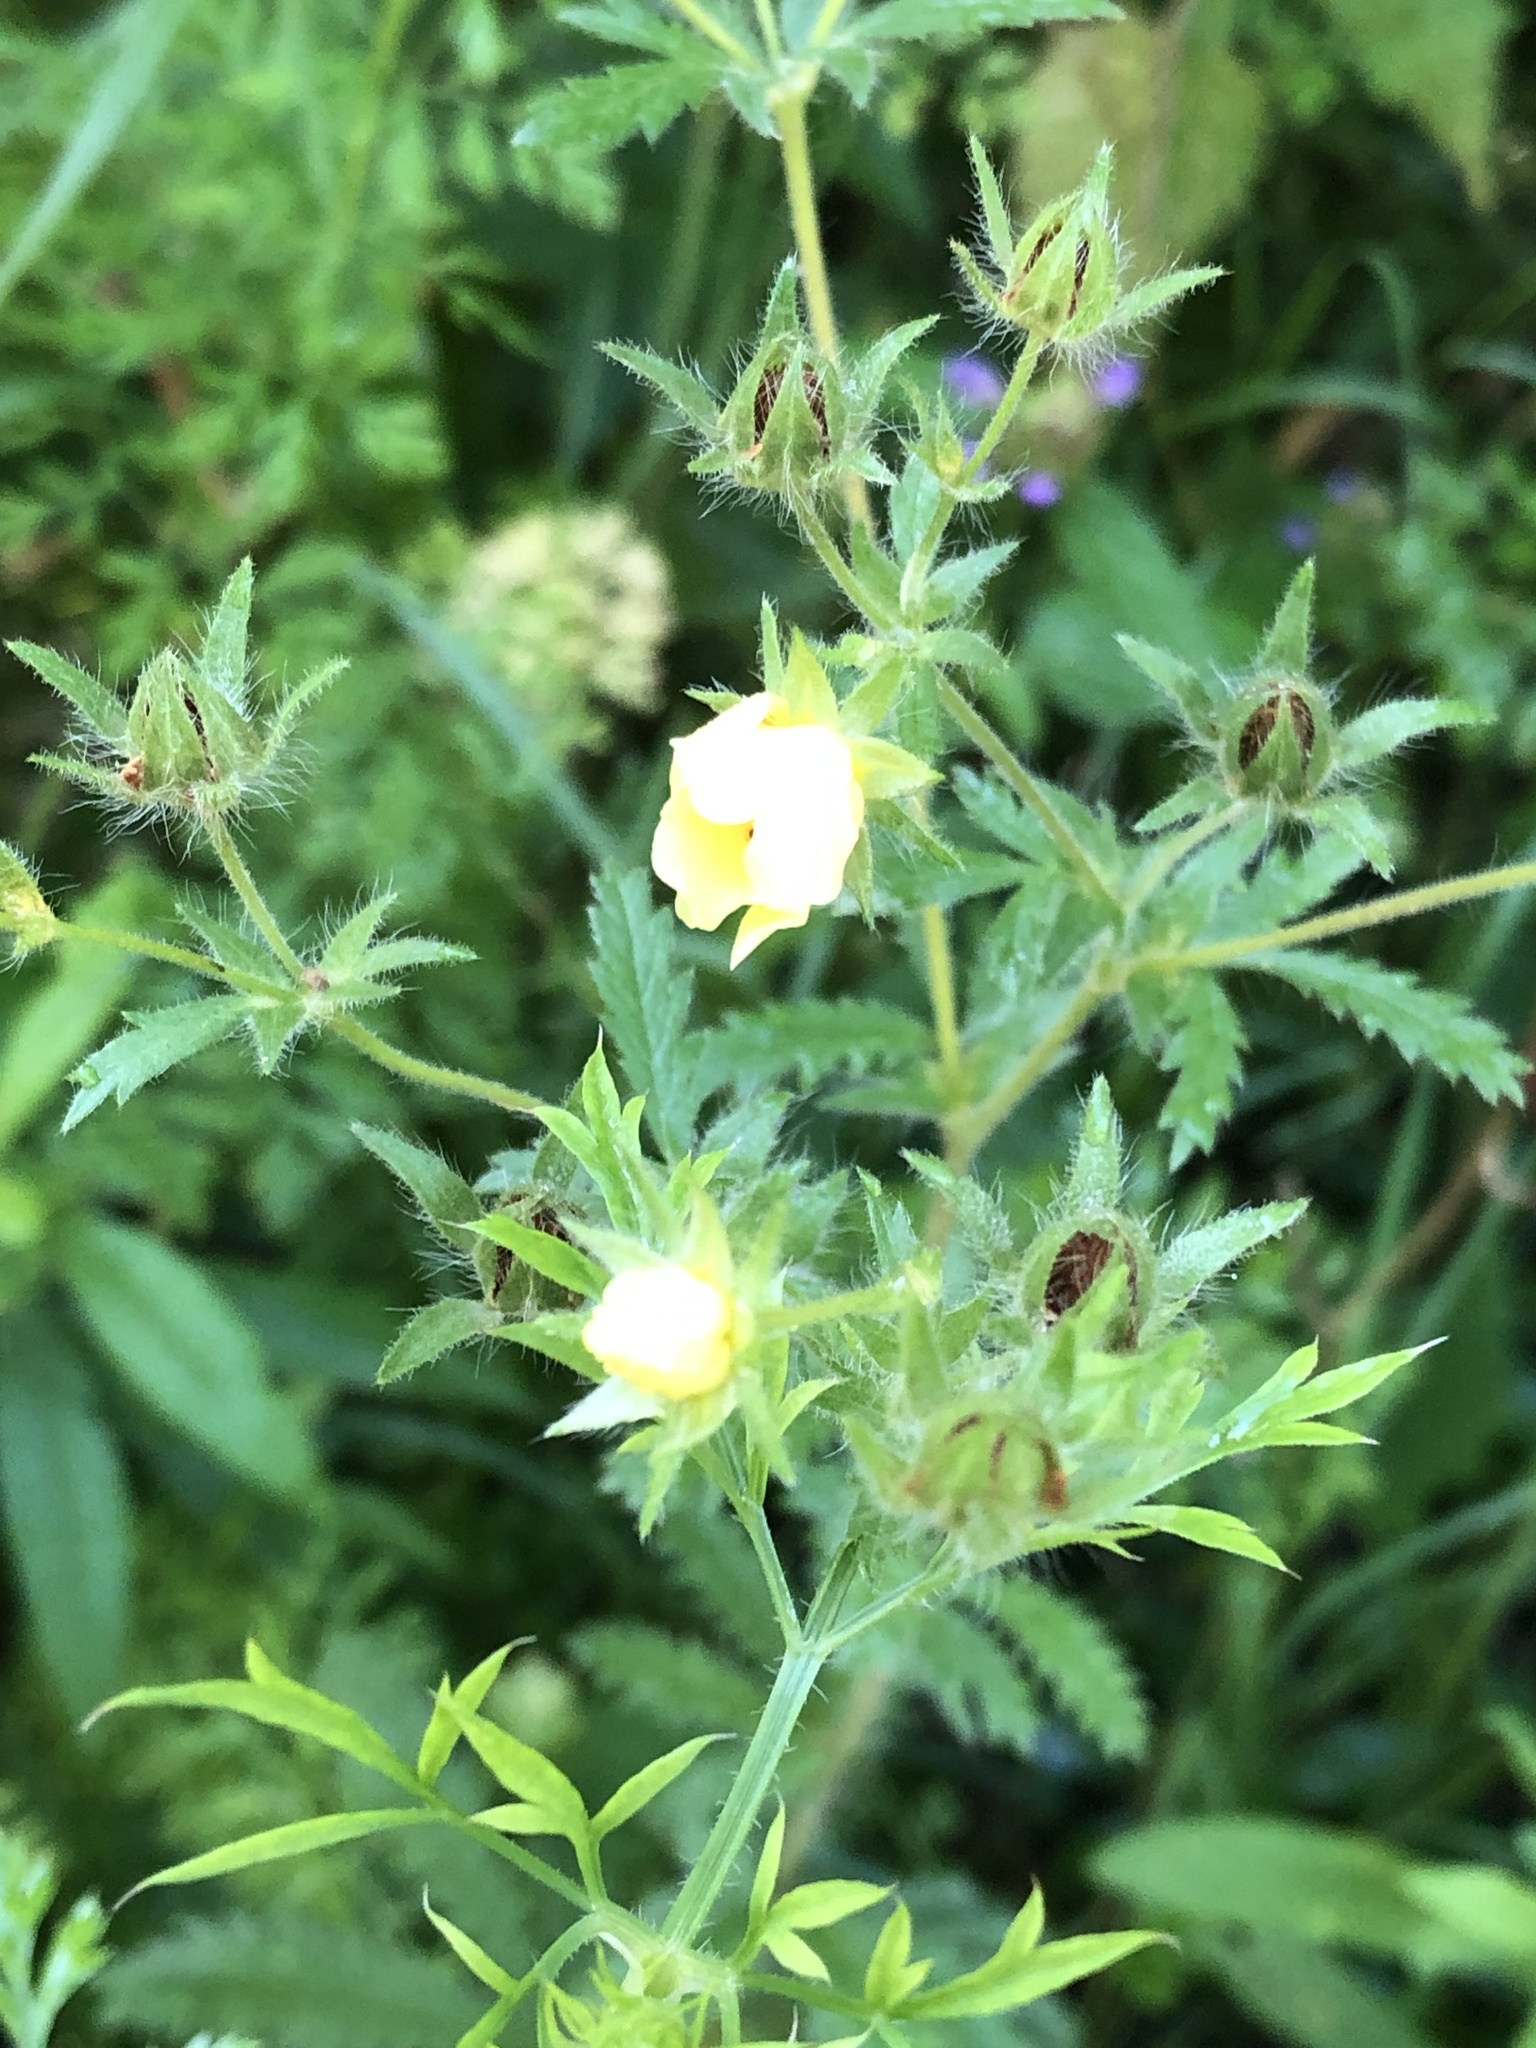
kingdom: Plantae
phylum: Tracheophyta
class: Magnoliopsida
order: Rosales
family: Rosaceae
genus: Potentilla
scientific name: Potentilla recta
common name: Sulphur cinquefoil
